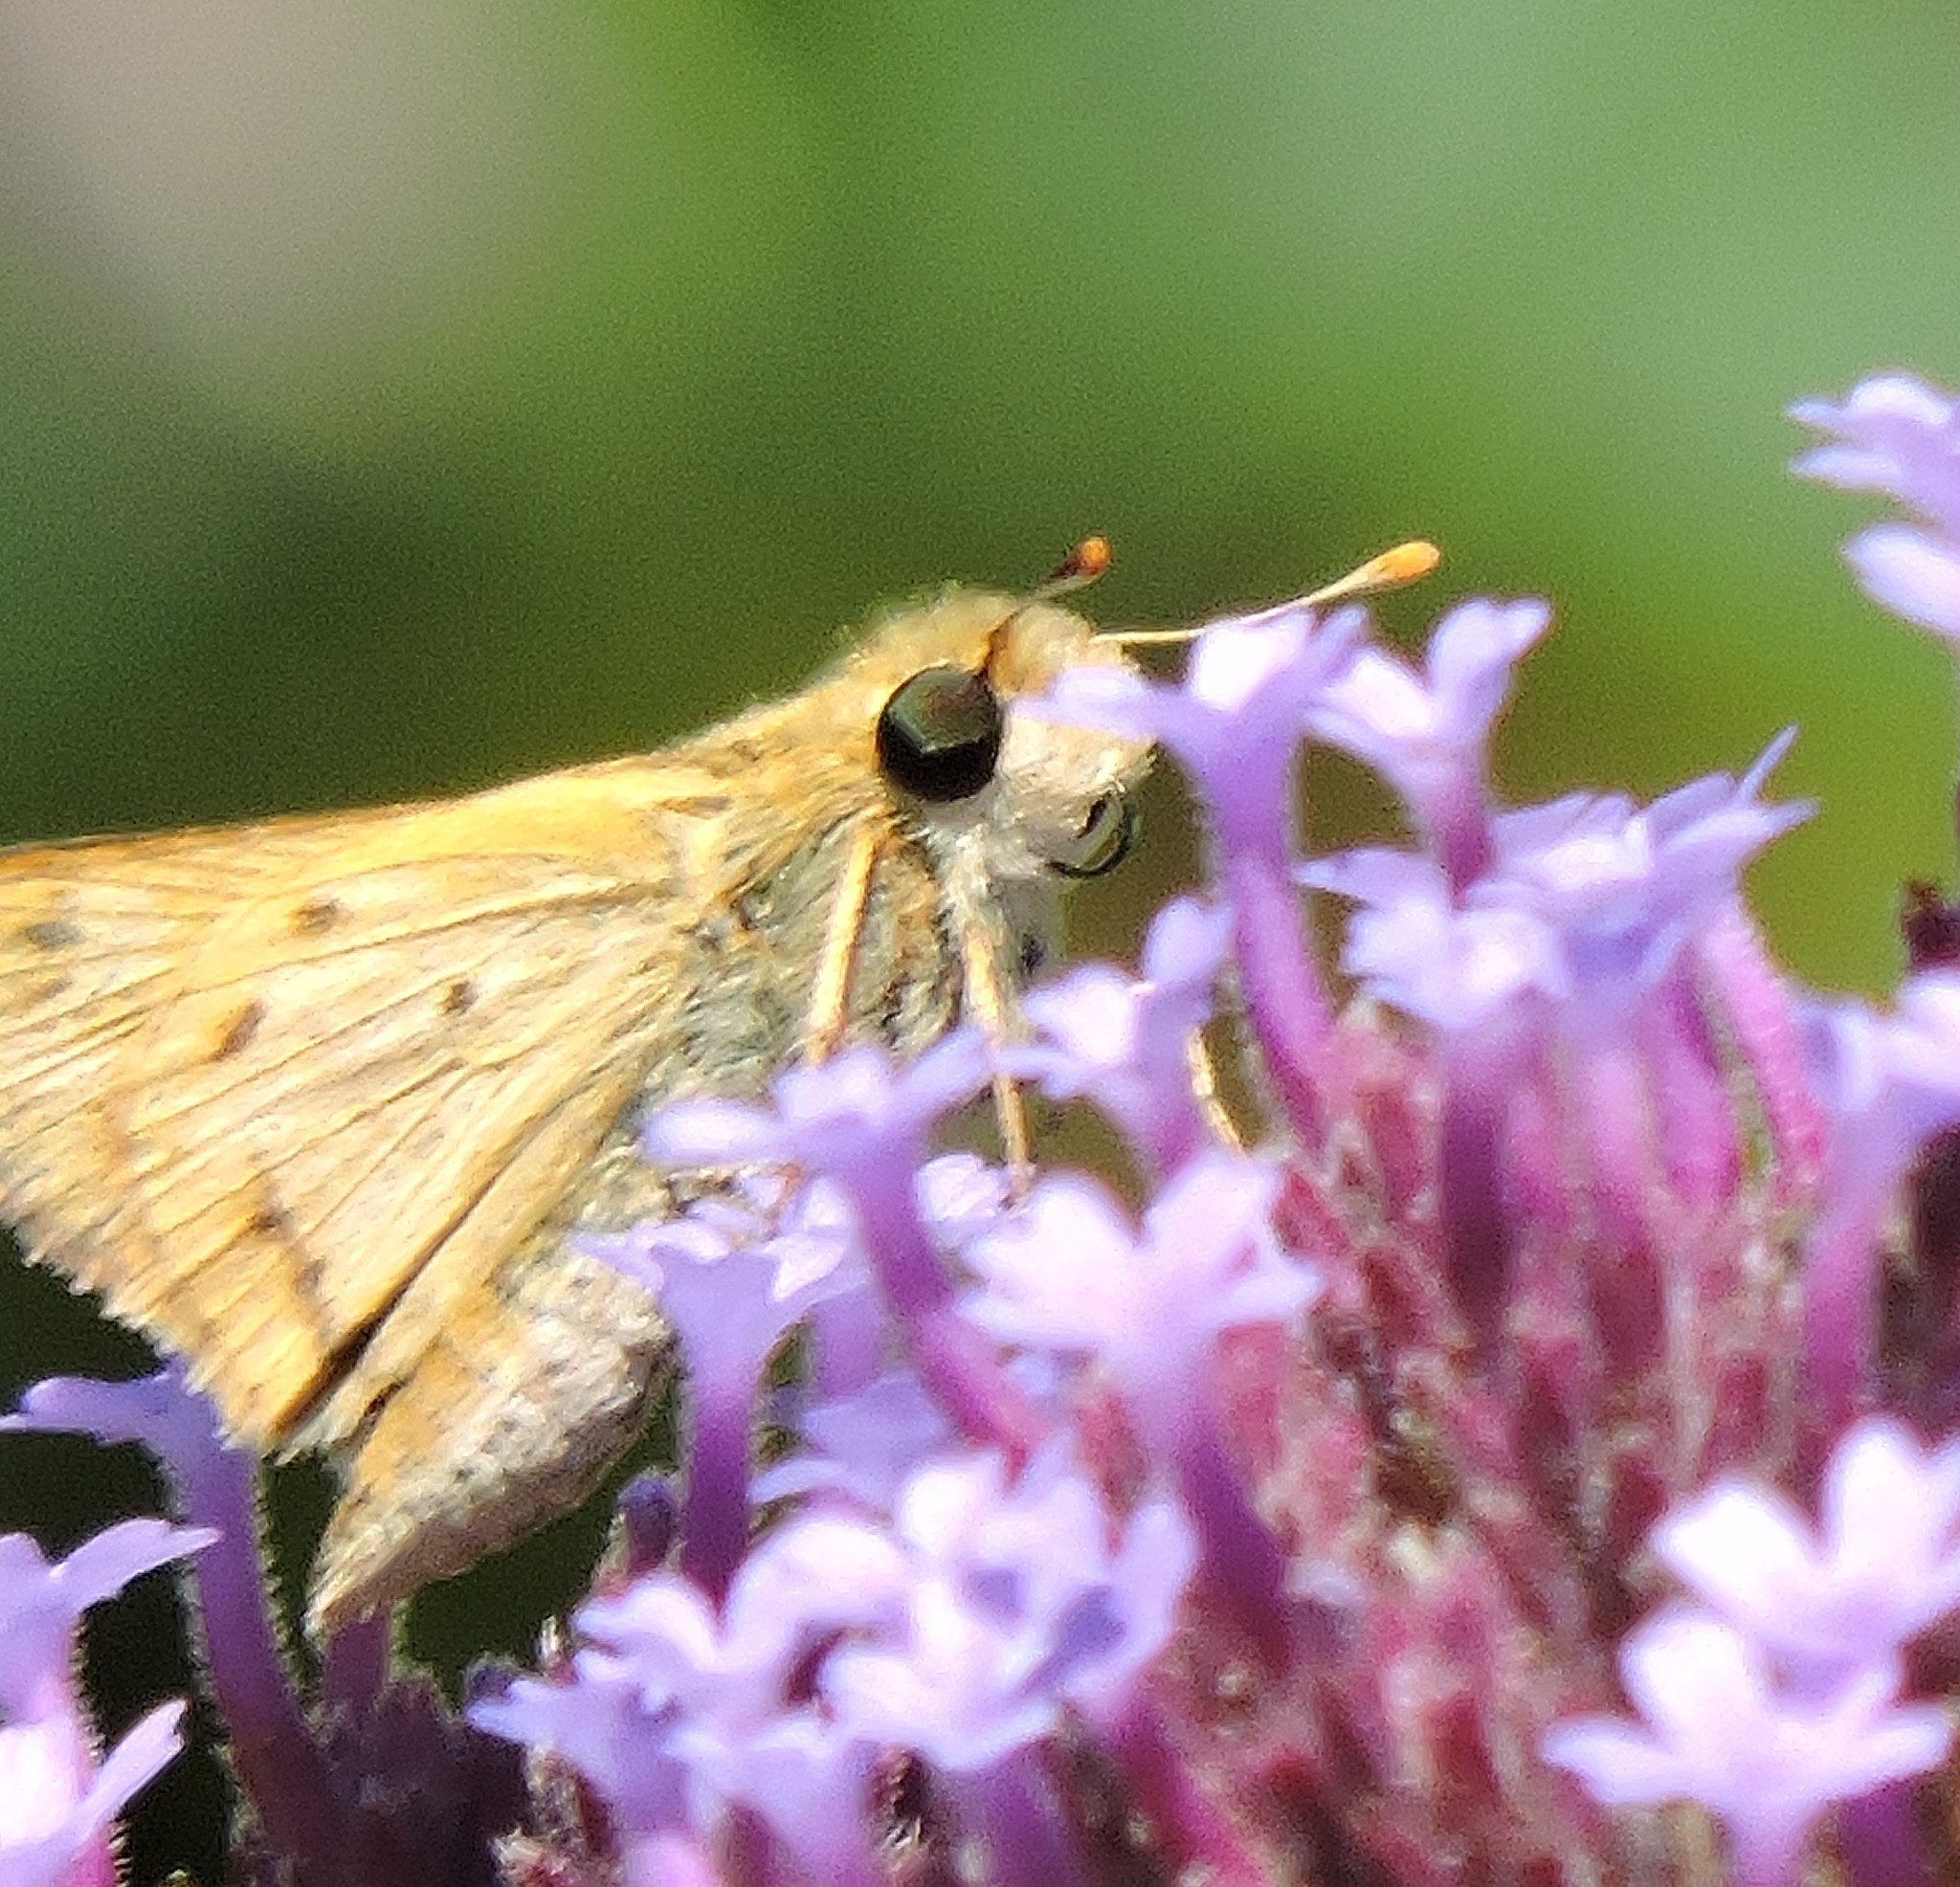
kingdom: Animalia
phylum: Arthropoda
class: Insecta
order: Lepidoptera
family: Hesperiidae
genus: Hylephila
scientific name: Hylephila phyleus
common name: Fiery skipper
